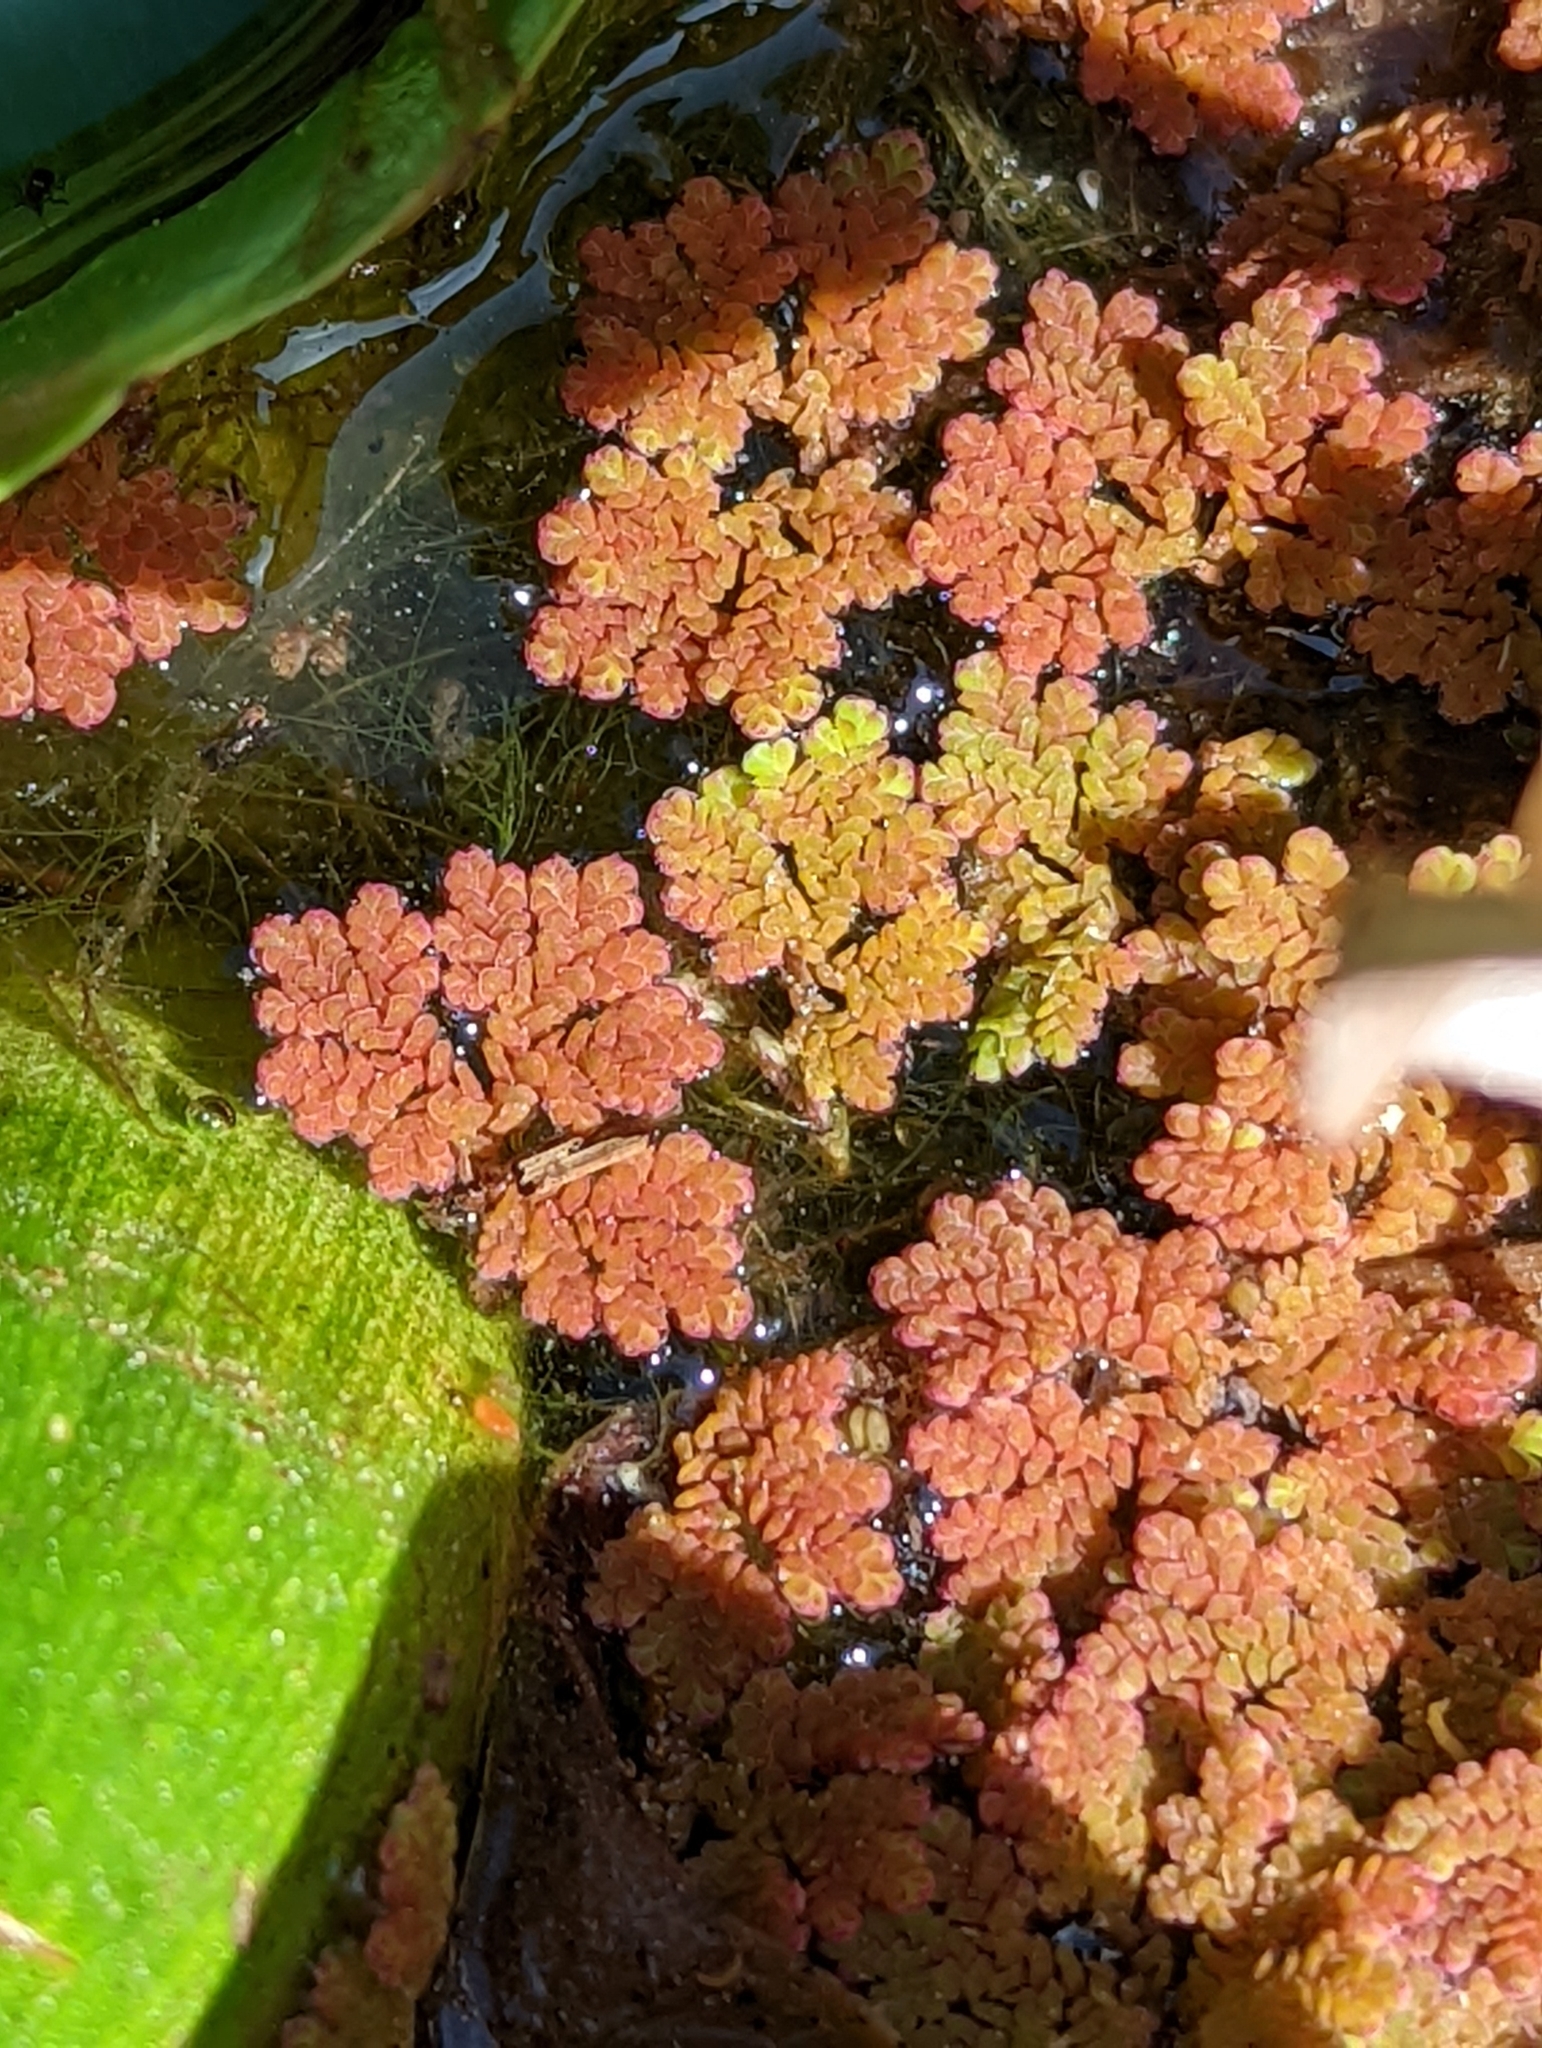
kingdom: Plantae
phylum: Tracheophyta
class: Polypodiopsida
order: Salviniales
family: Salviniaceae
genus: Azolla
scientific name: Azolla caroliniana
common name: Carolina mosquitofern
